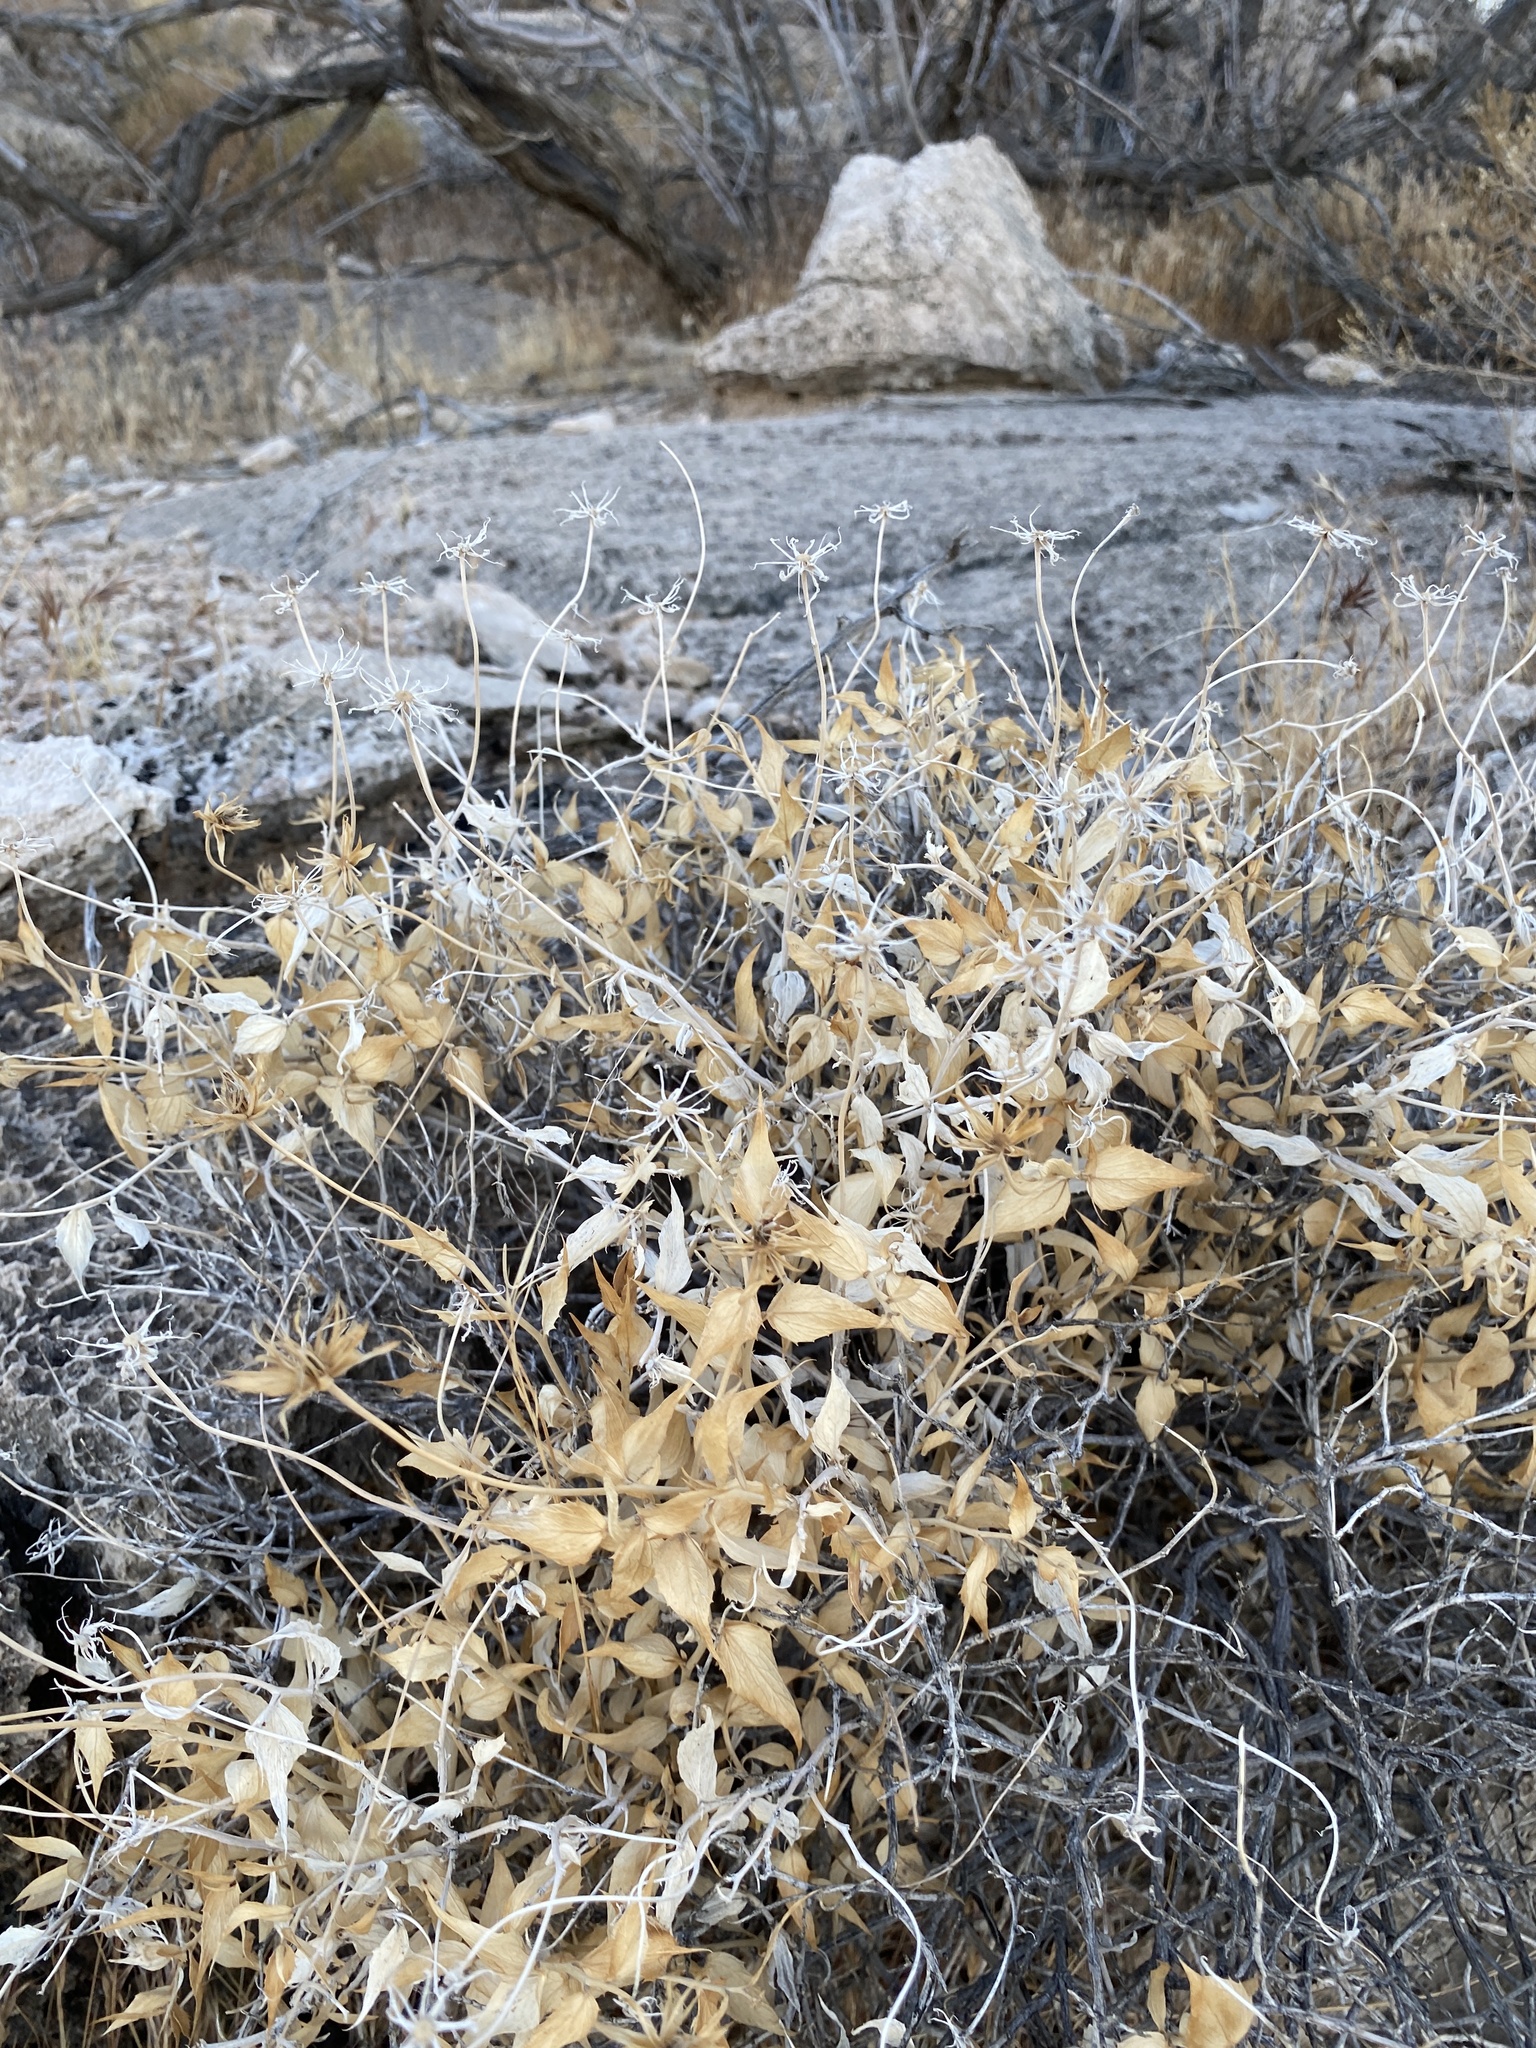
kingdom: Plantae
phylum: Tracheophyta
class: Magnoliopsida
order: Asterales
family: Asteraceae
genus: Brickellia
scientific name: Brickellia atractyloides
